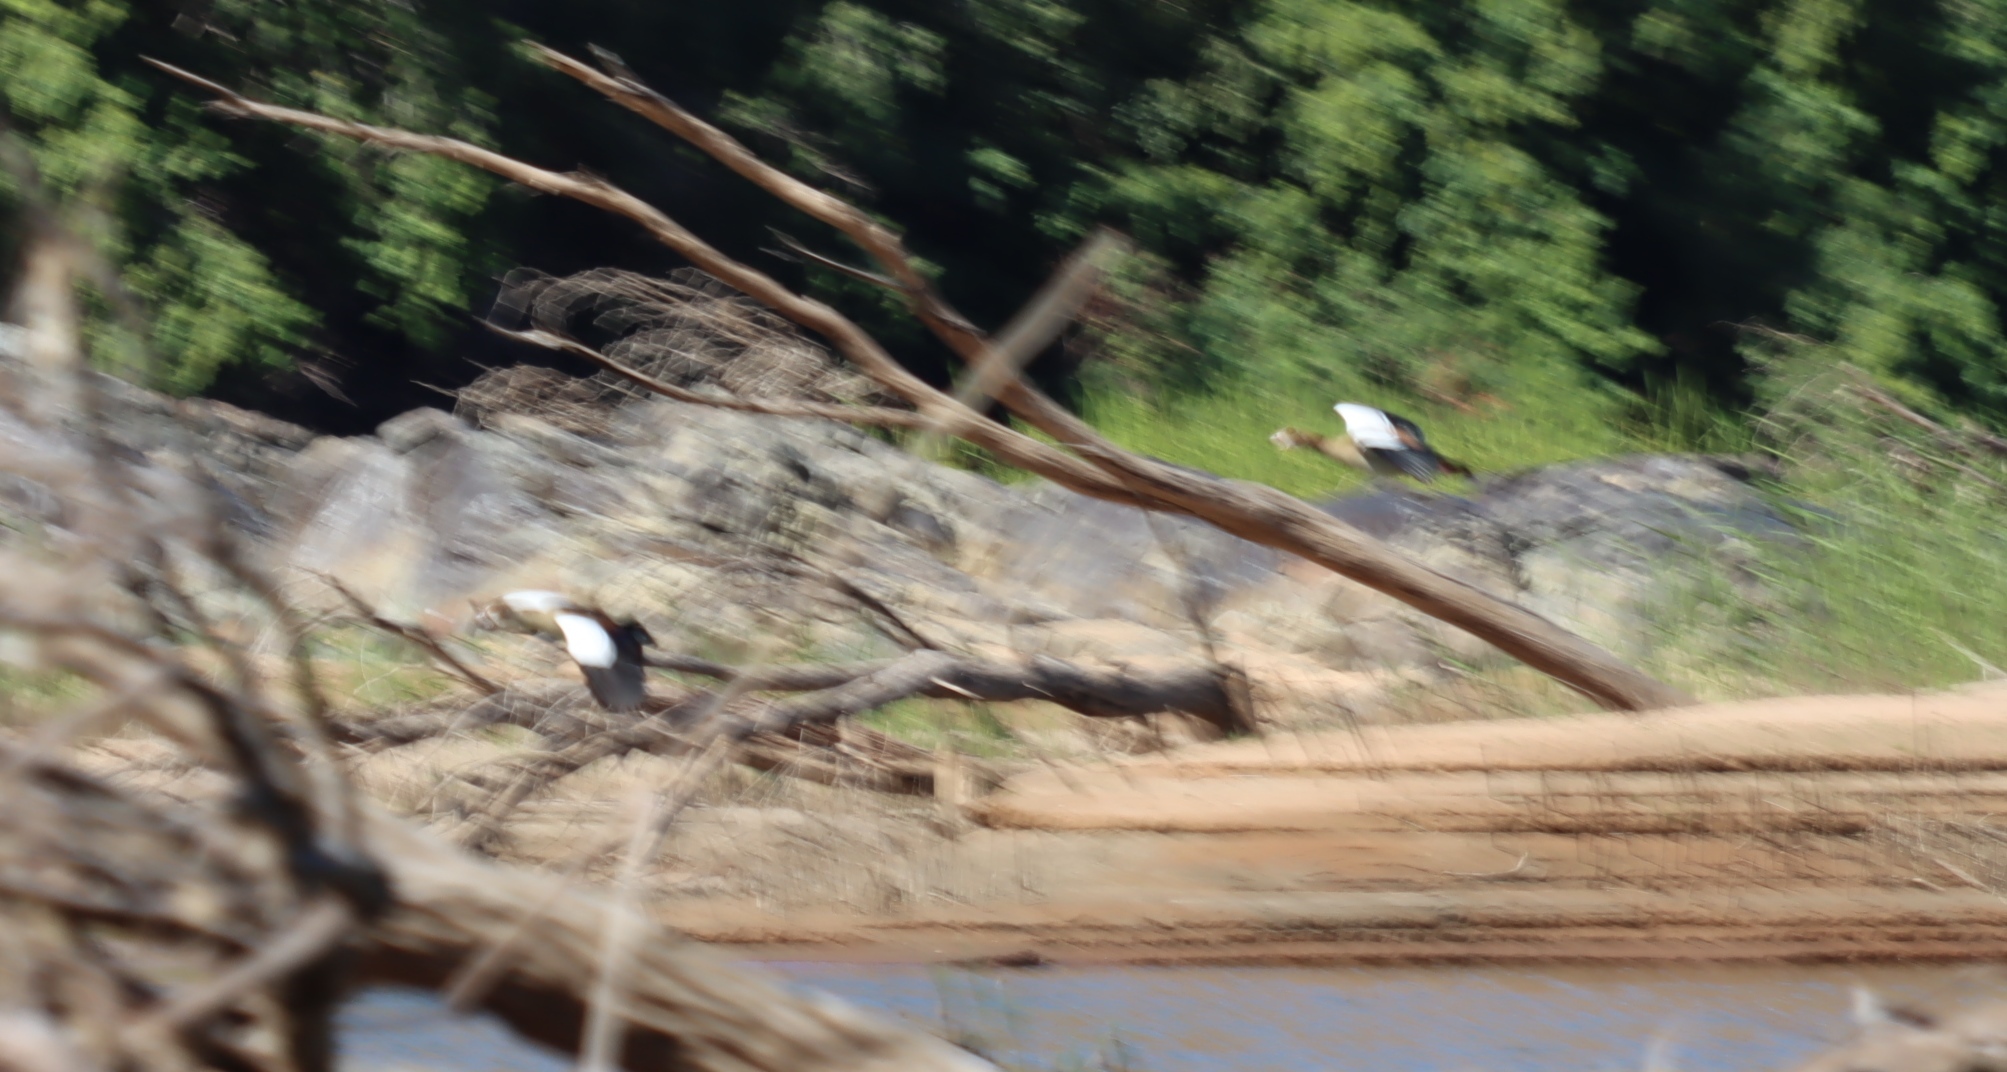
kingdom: Animalia
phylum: Chordata
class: Aves
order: Anseriformes
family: Anatidae
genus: Alopochen
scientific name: Alopochen aegyptiaca
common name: Egyptian goose
